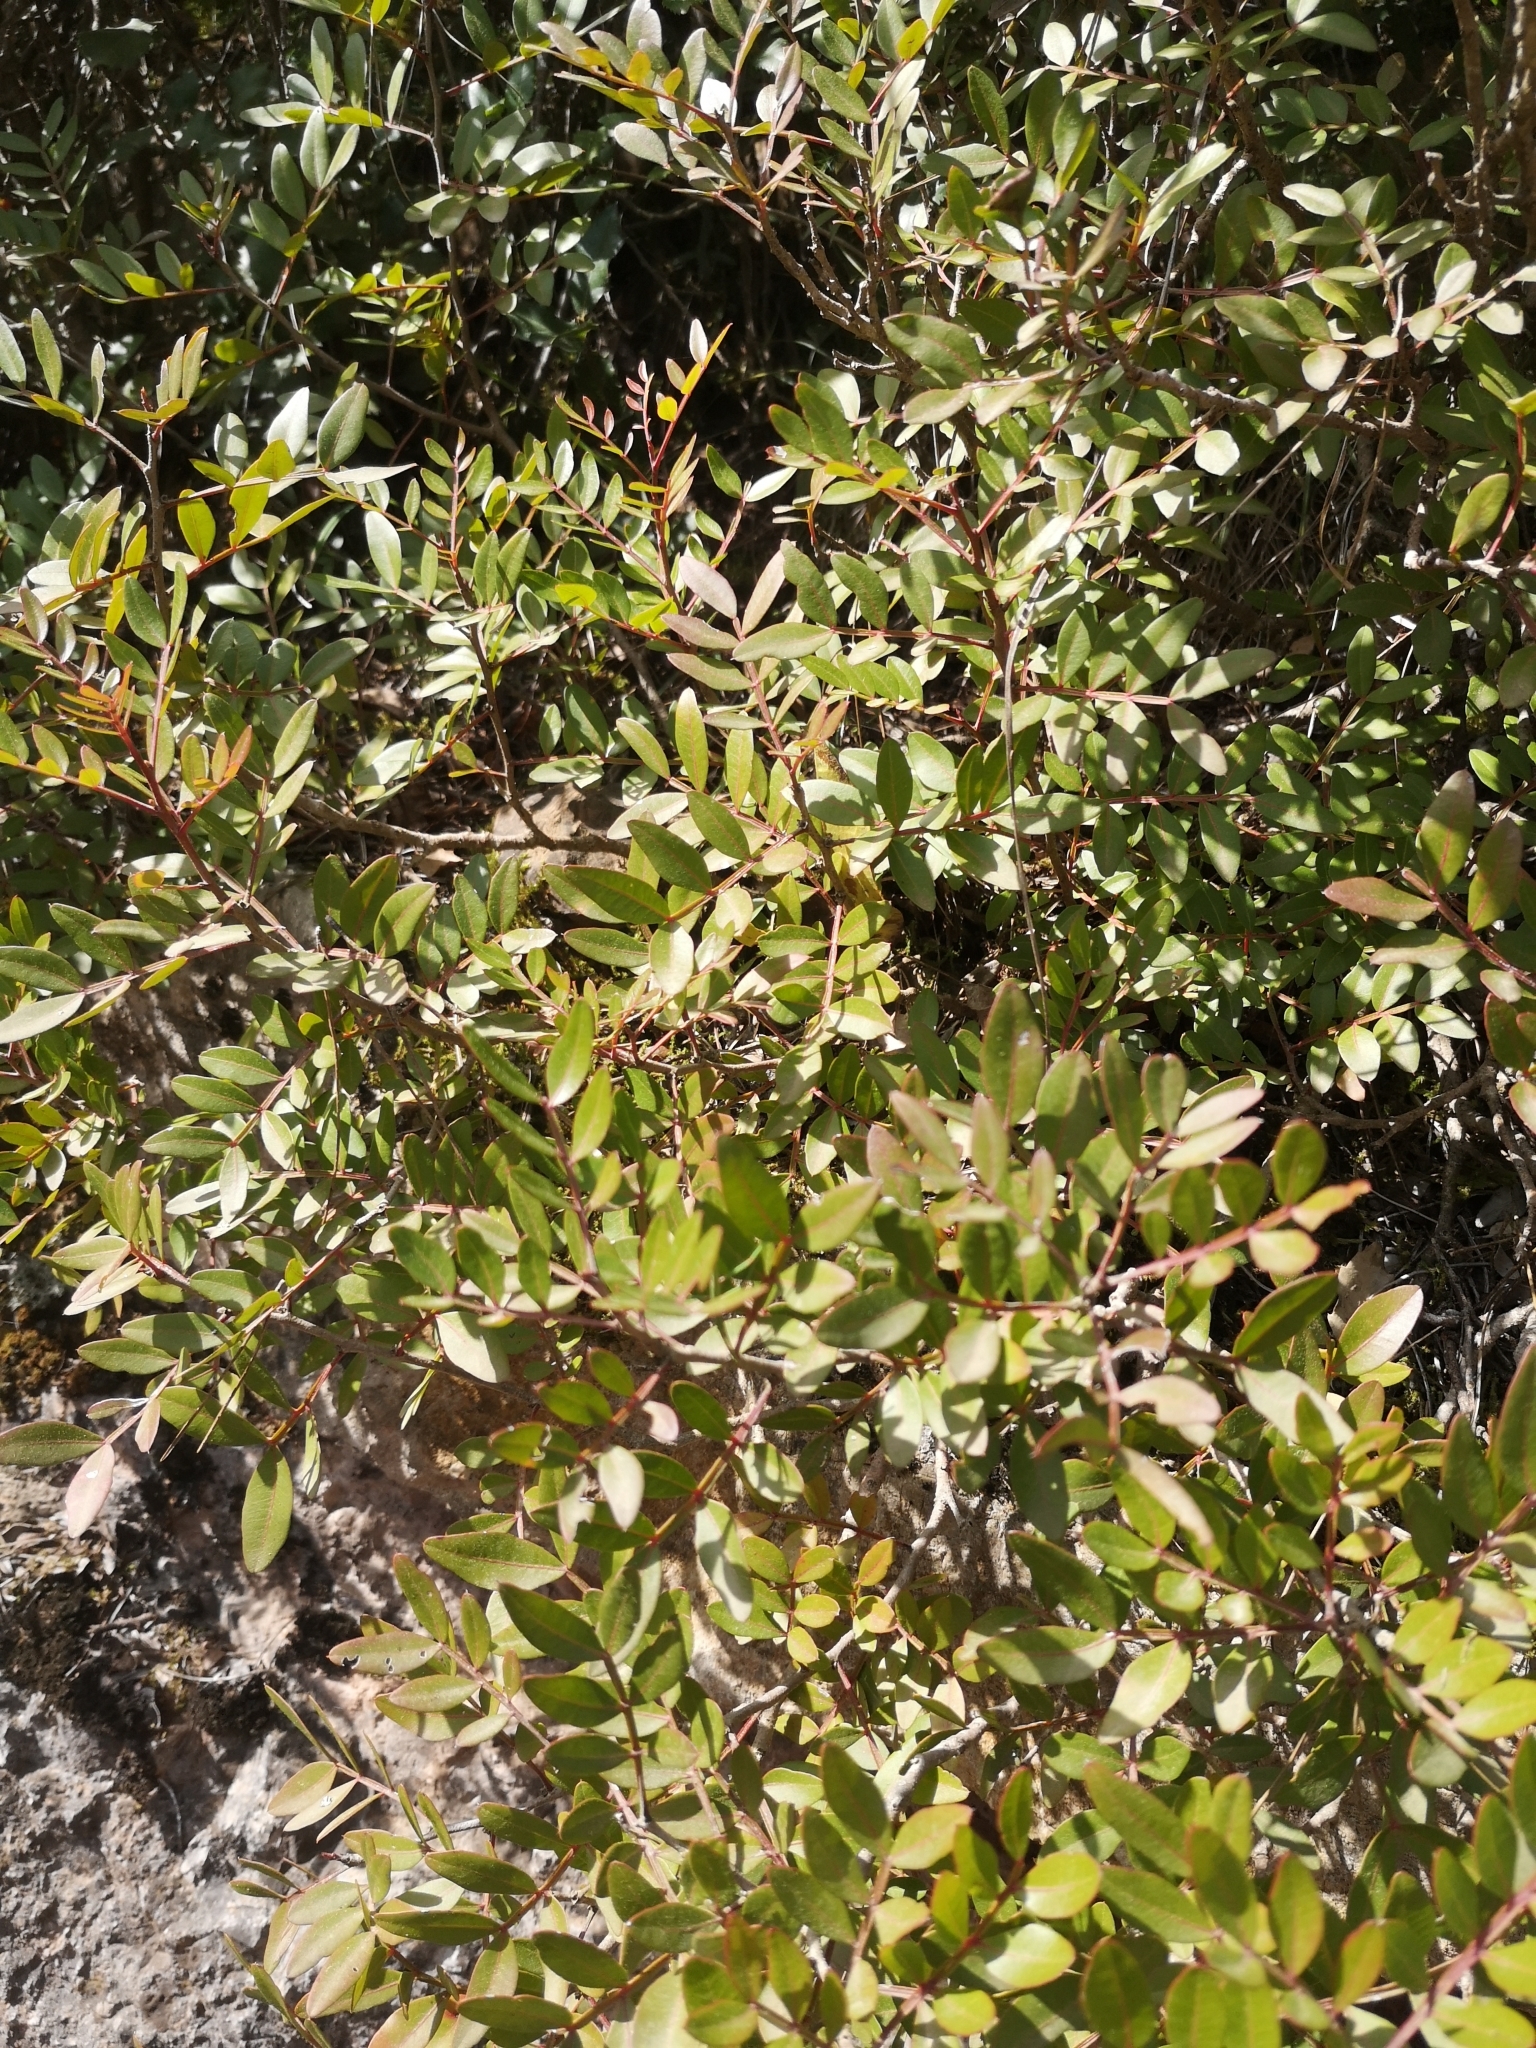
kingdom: Plantae
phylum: Tracheophyta
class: Magnoliopsida
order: Sapindales
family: Anacardiaceae
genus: Pistacia
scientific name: Pistacia lentiscus
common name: Lentisk
